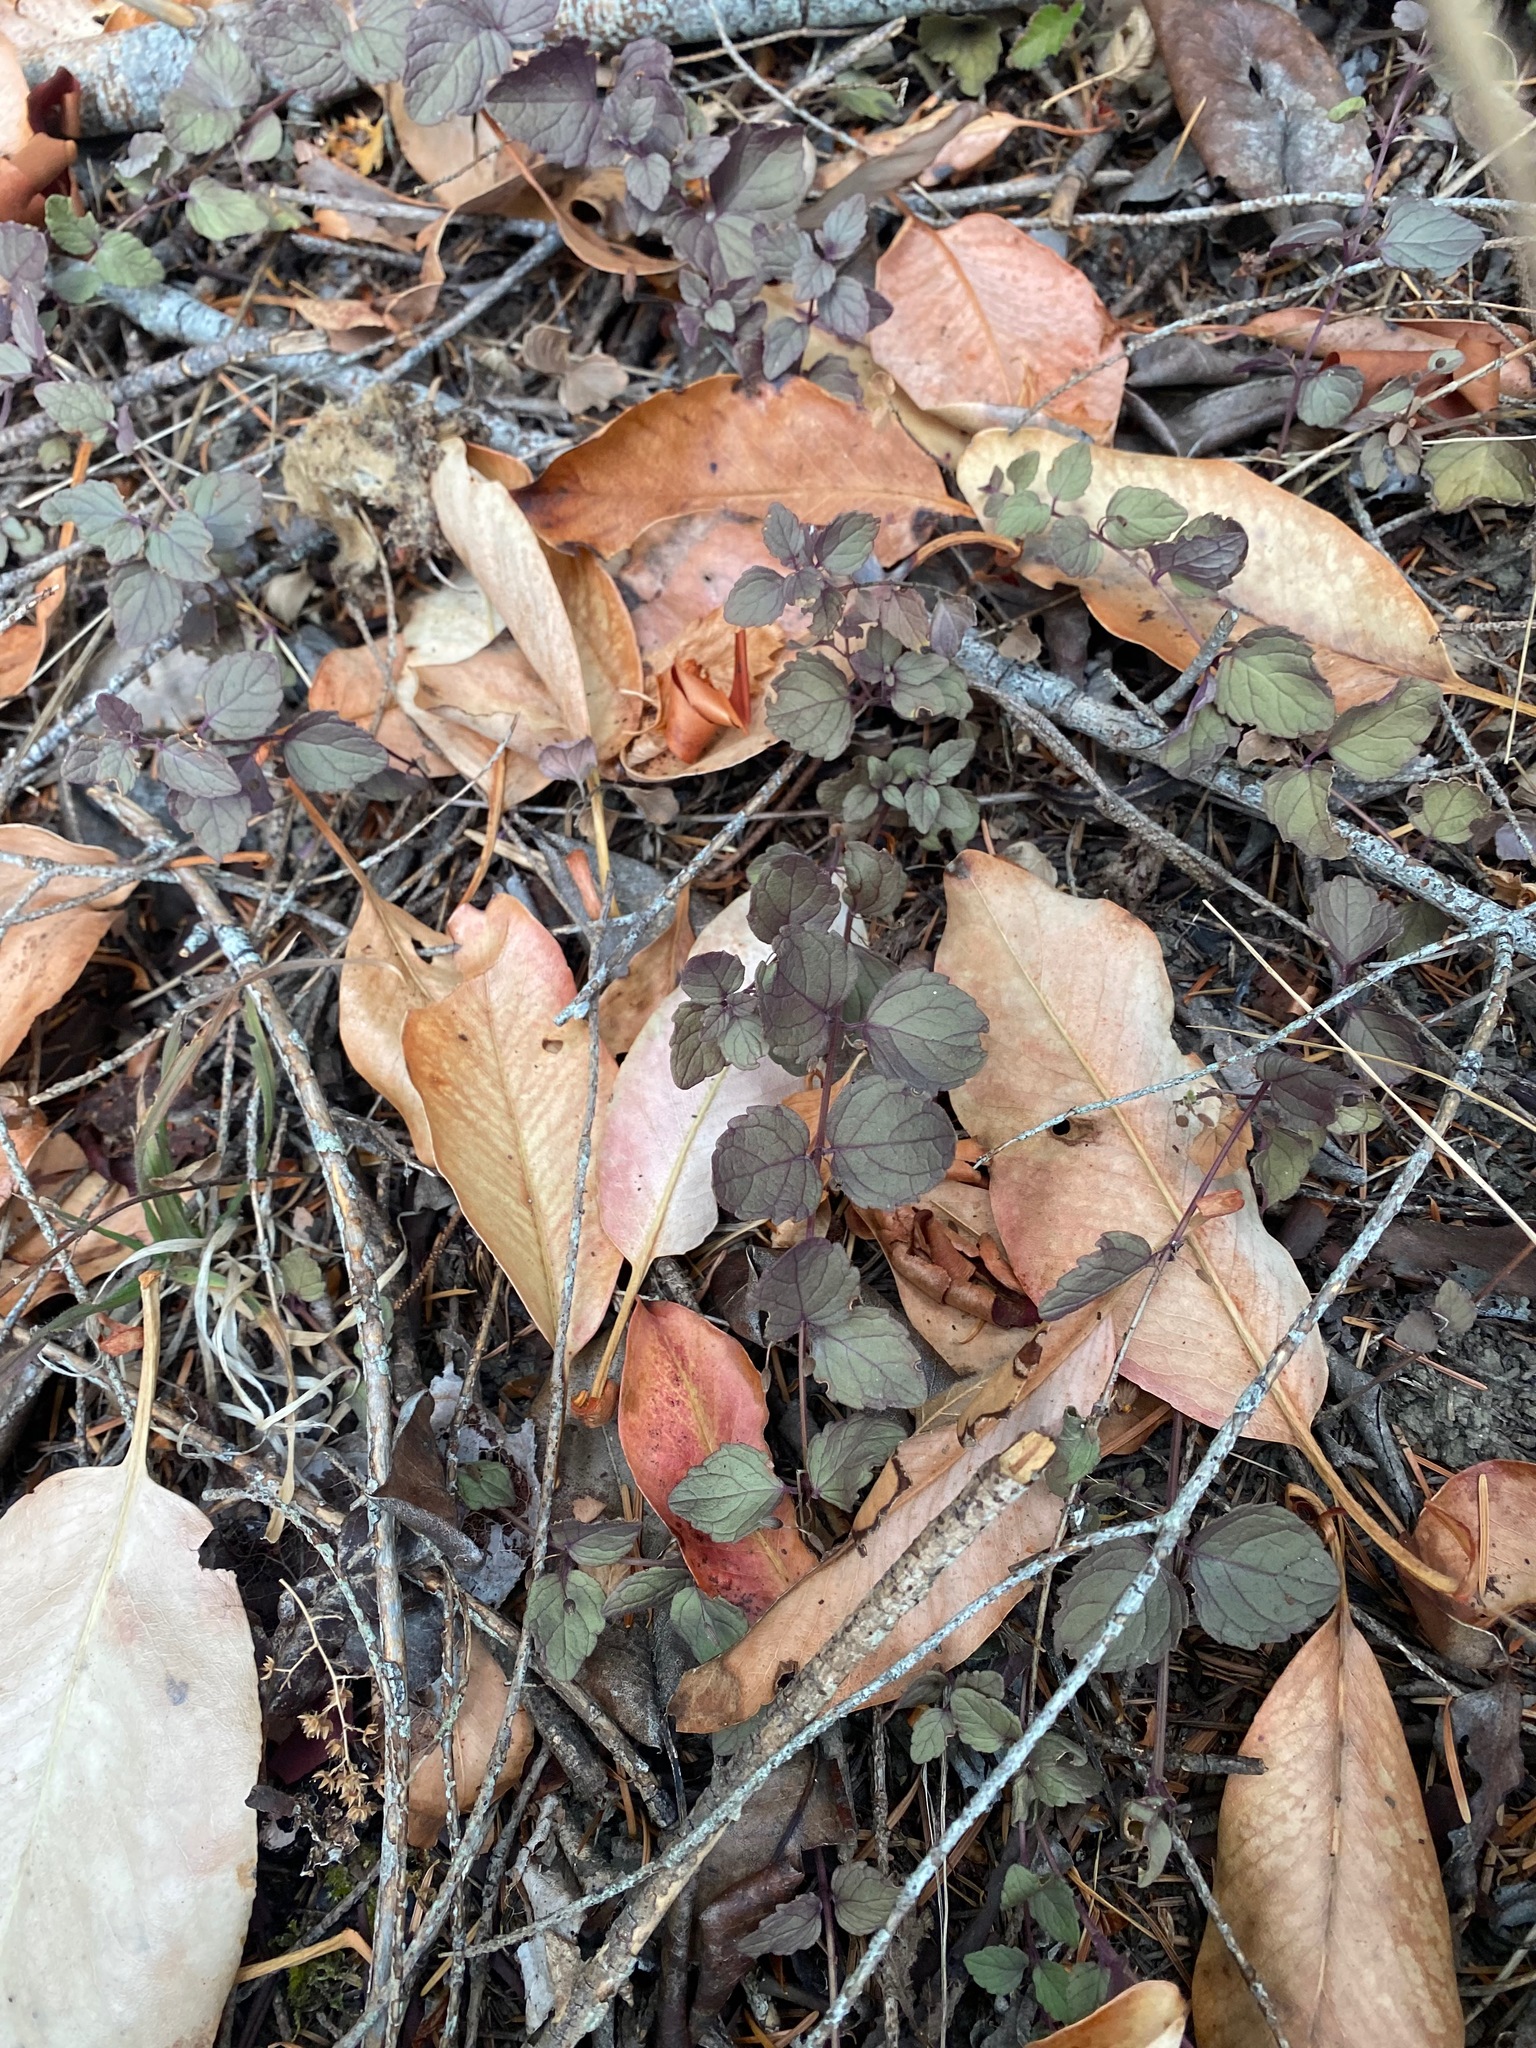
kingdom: Plantae
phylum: Tracheophyta
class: Magnoliopsida
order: Lamiales
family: Lamiaceae
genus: Micromeria
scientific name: Micromeria douglasii
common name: Yerba buena
